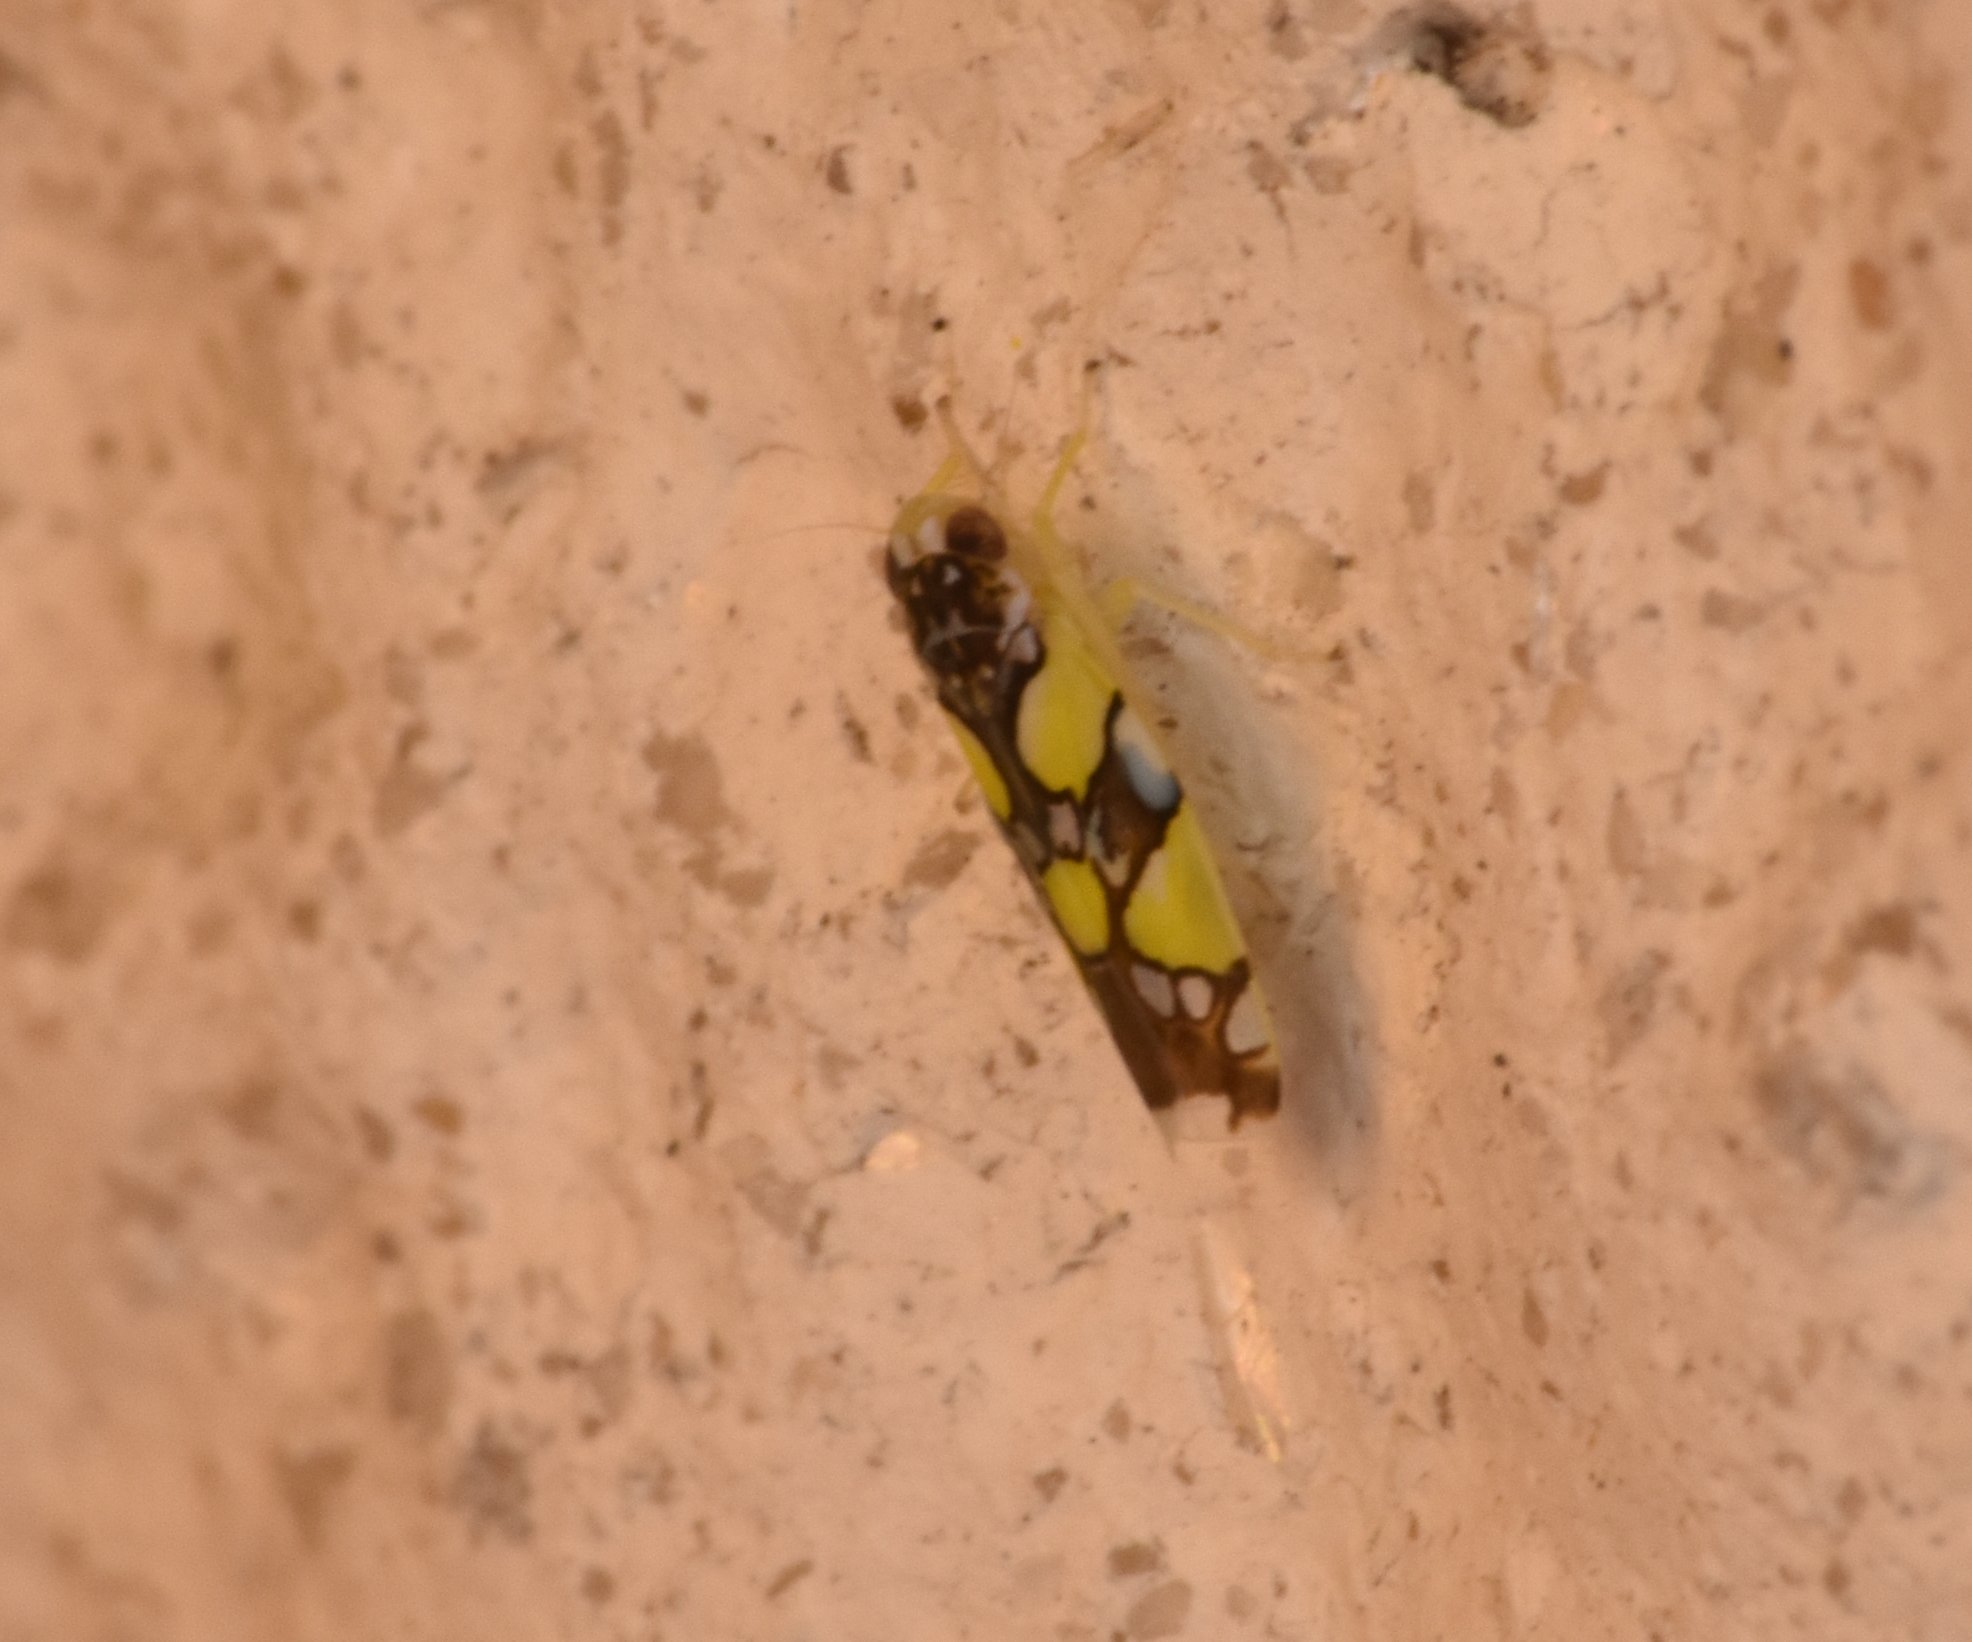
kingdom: Animalia
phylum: Arthropoda
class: Insecta
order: Hemiptera
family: Cicadellidae
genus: Protalebrella
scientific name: Protalebrella brasiliensis
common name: Brasilian leafhopper
